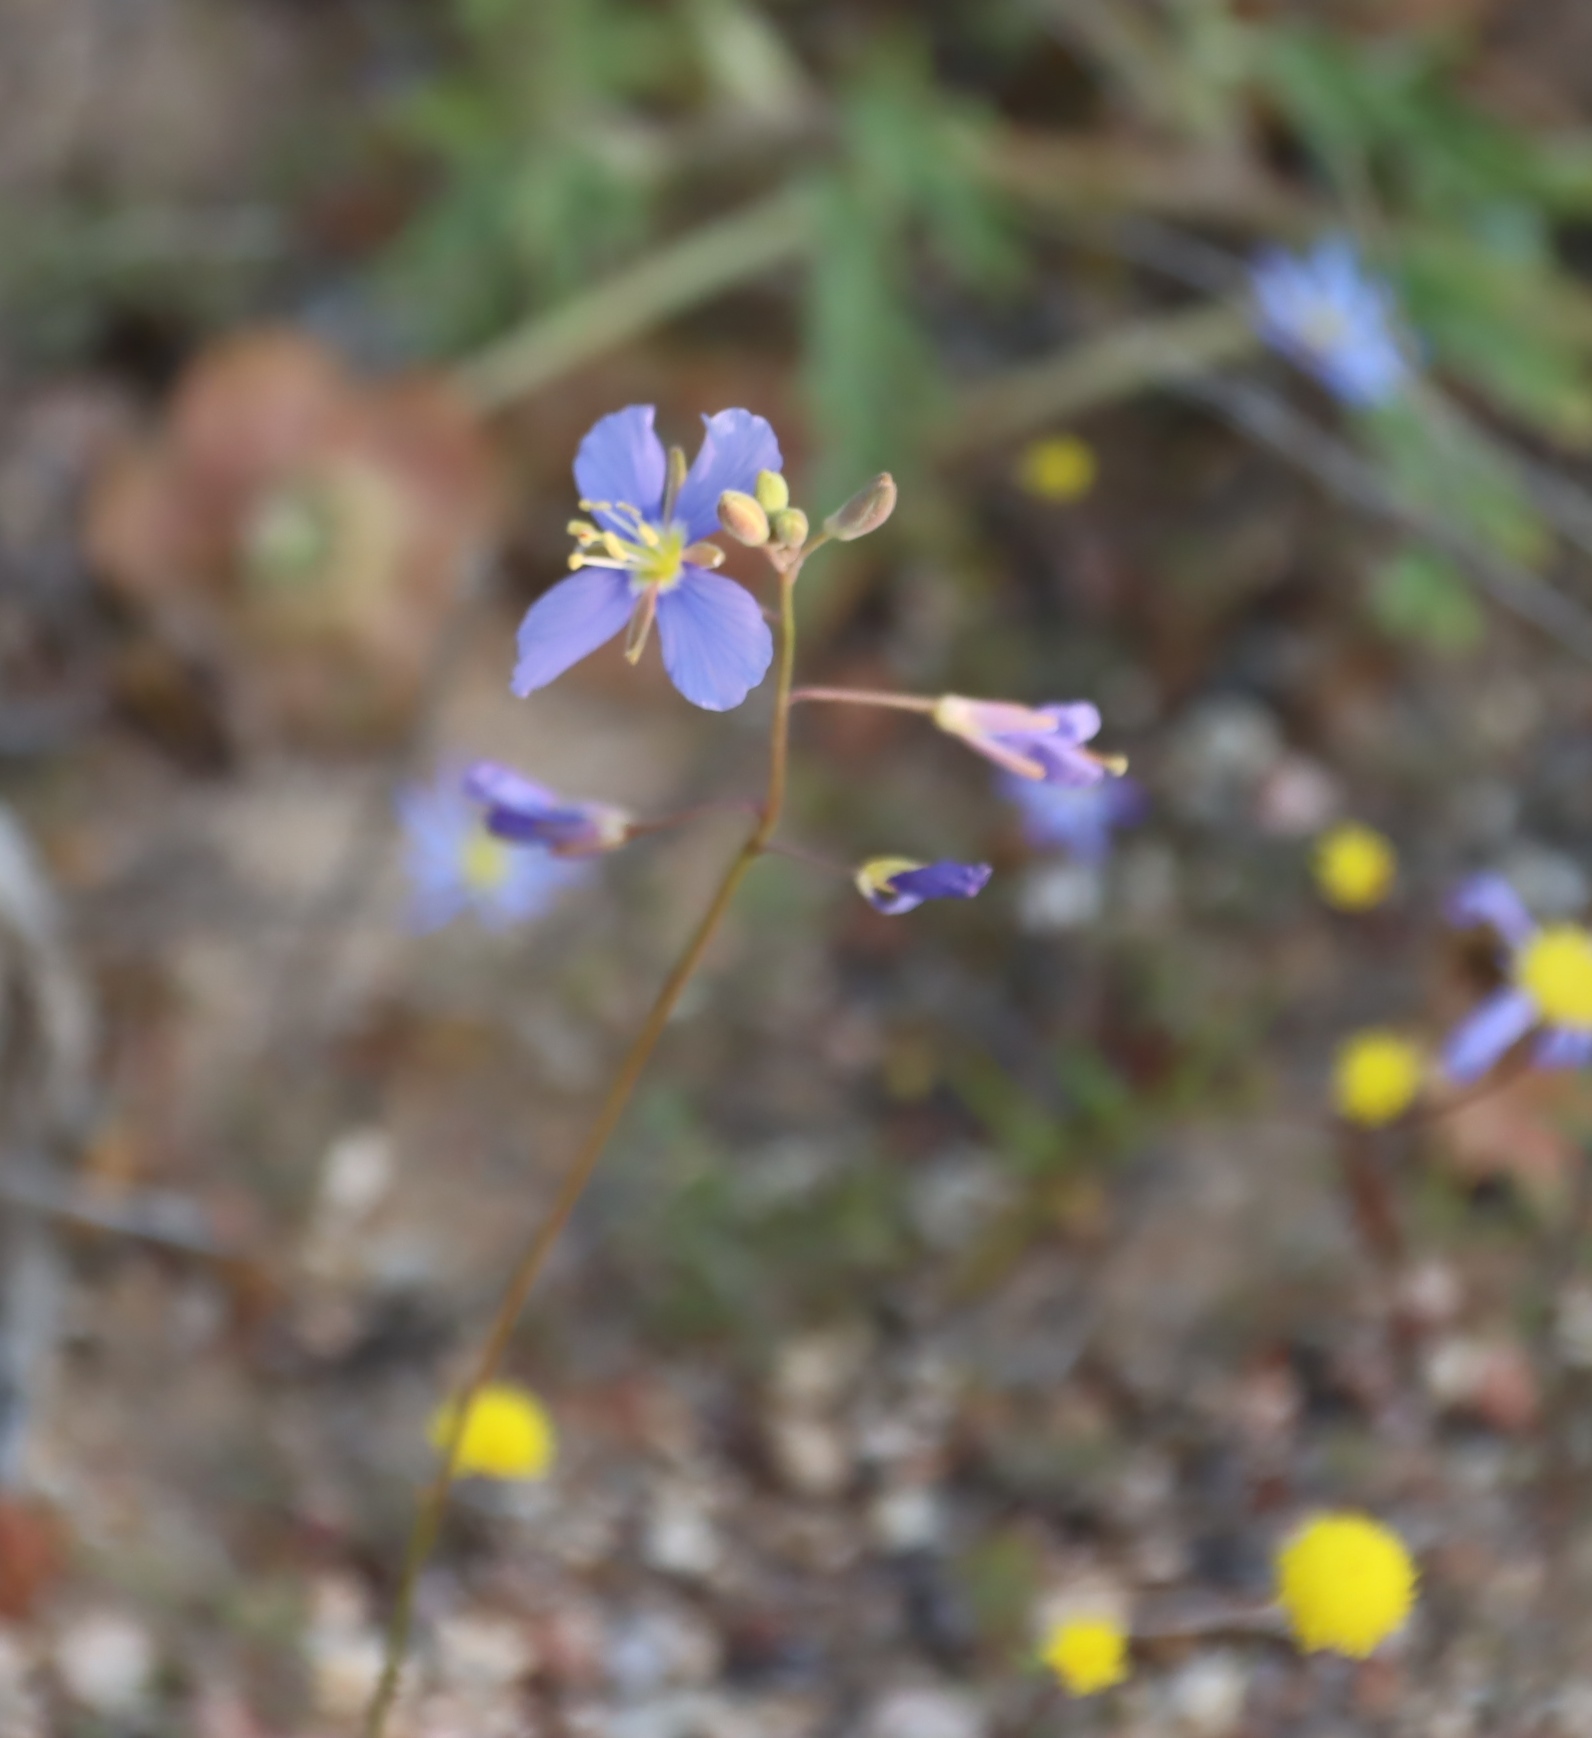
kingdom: Plantae
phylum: Tracheophyta
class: Magnoliopsida
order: Brassicales
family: Brassicaceae
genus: Heliophila
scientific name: Heliophila schulzii
